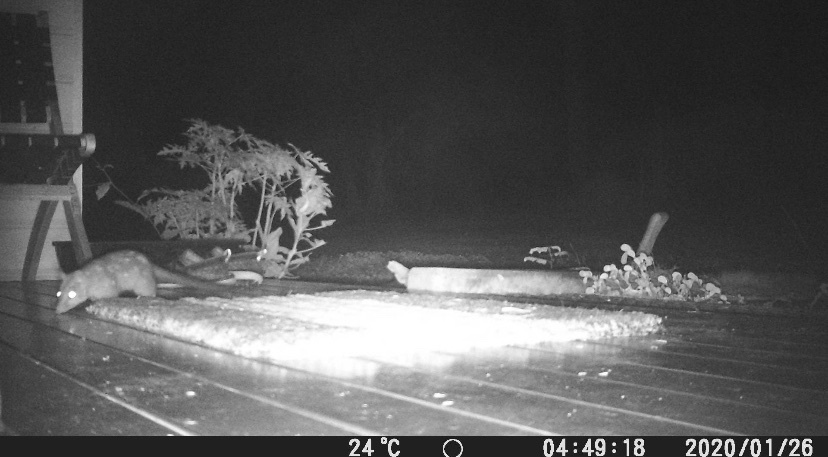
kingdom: Animalia
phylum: Chordata
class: Mammalia
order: Dasyuromorphia
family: Dasyuridae
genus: Dasyurus
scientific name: Dasyurus hallucatus
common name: Northern quoll
